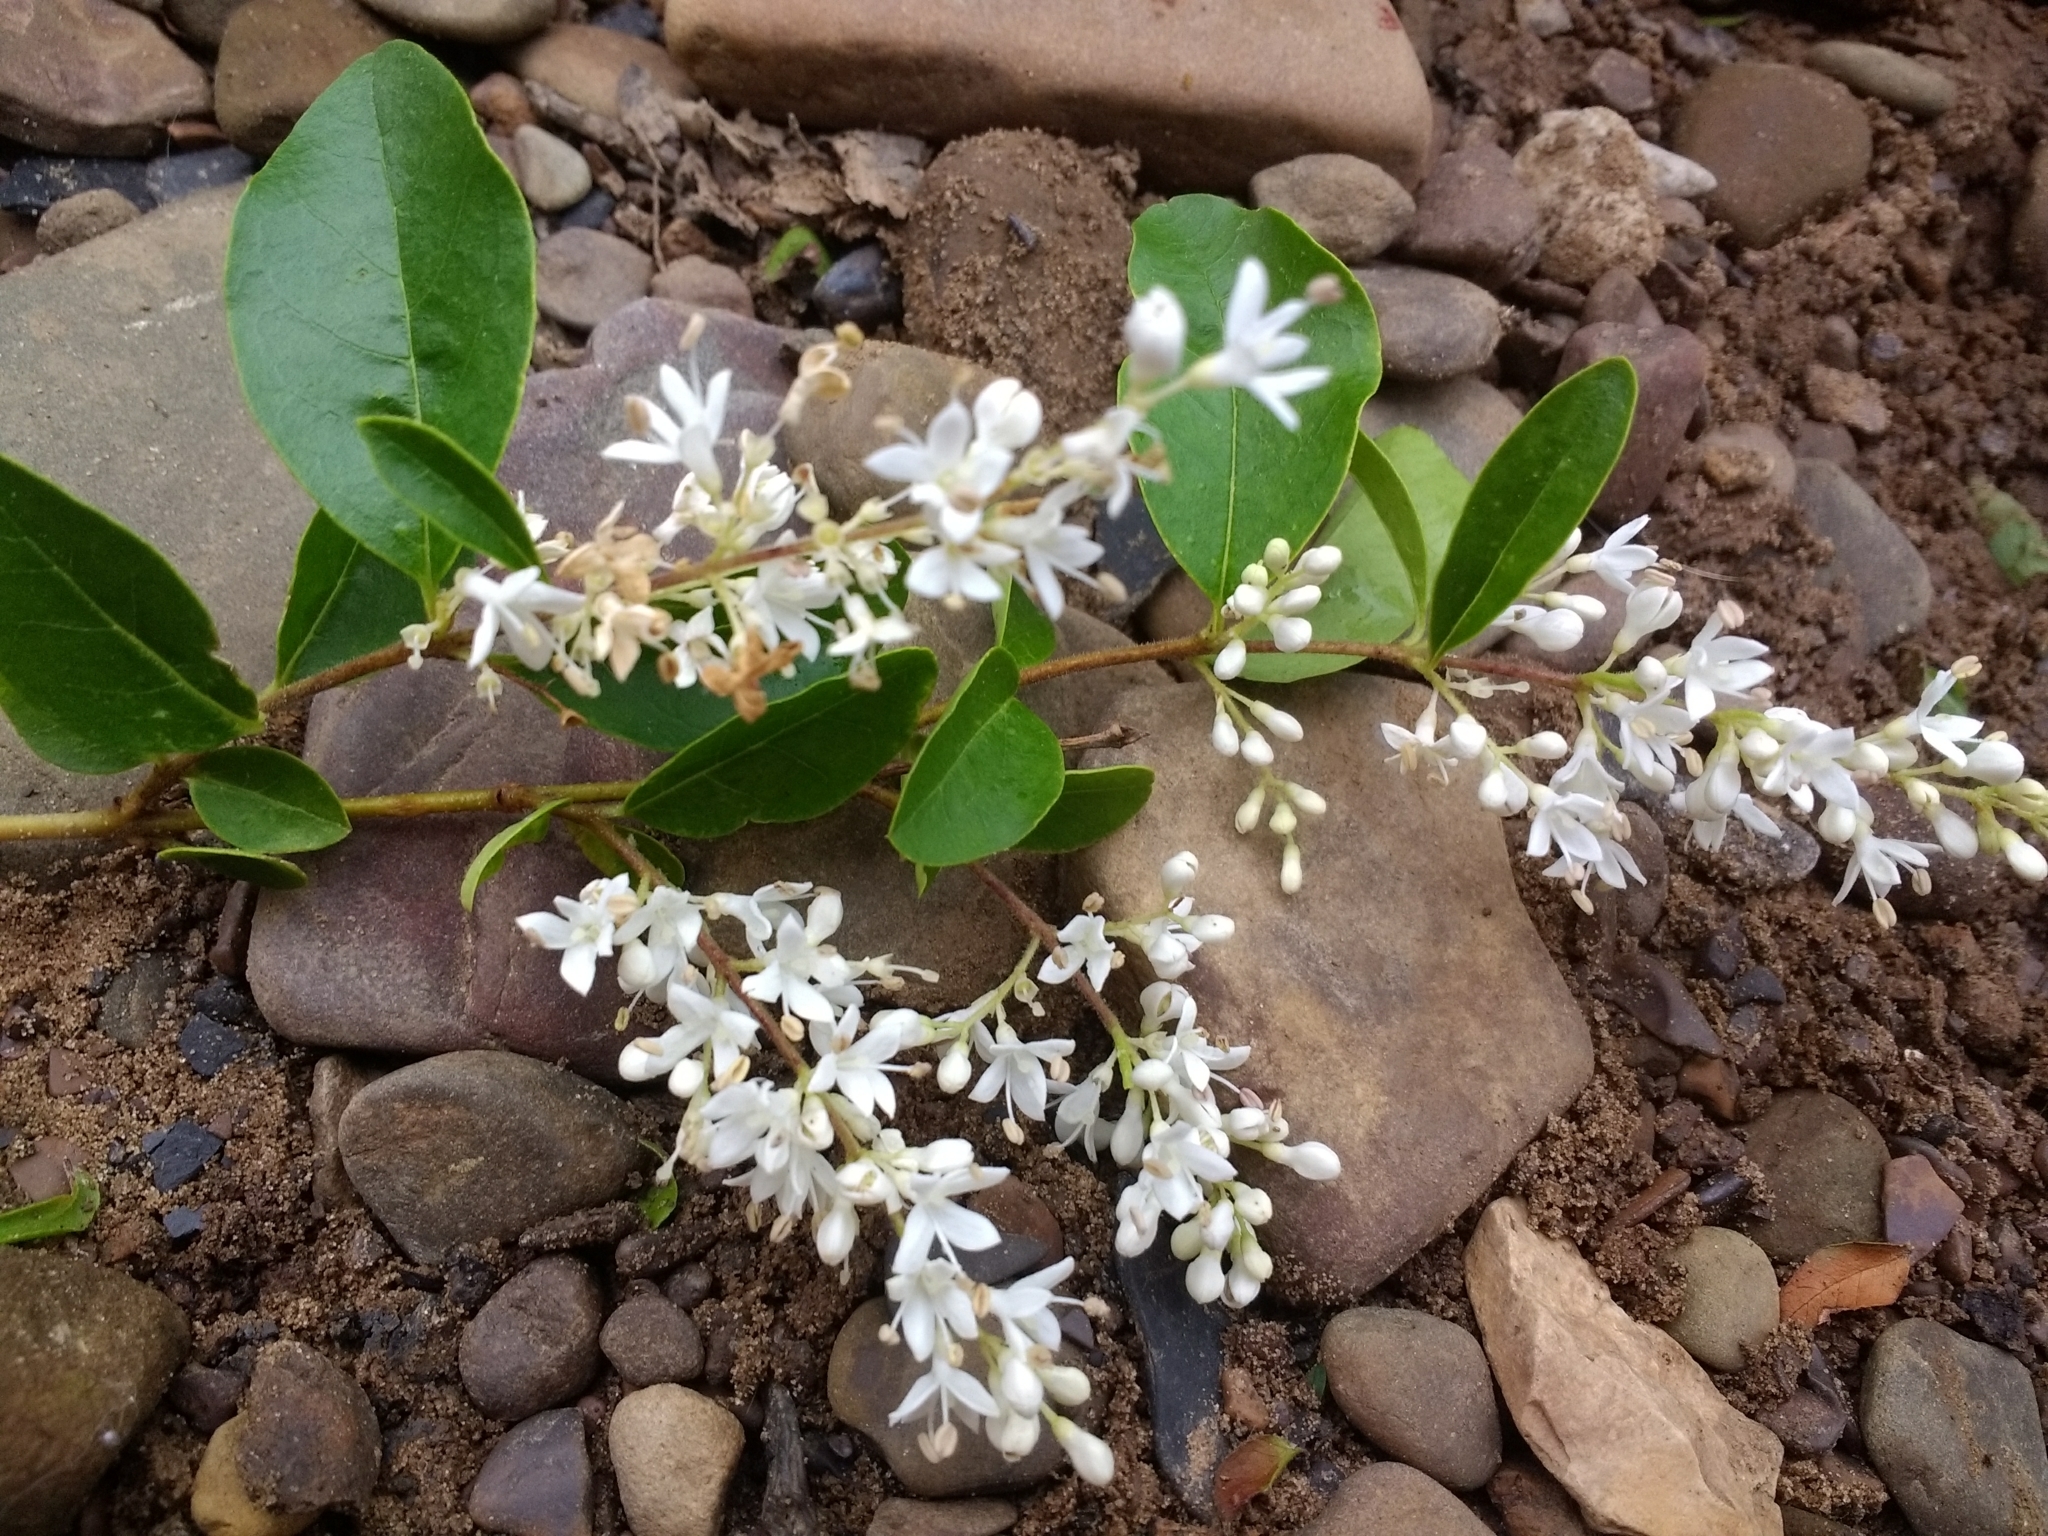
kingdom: Plantae
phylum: Tracheophyta
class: Magnoliopsida
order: Lamiales
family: Oleaceae
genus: Ligustrum
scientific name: Ligustrum sinense
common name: Chinese privet
